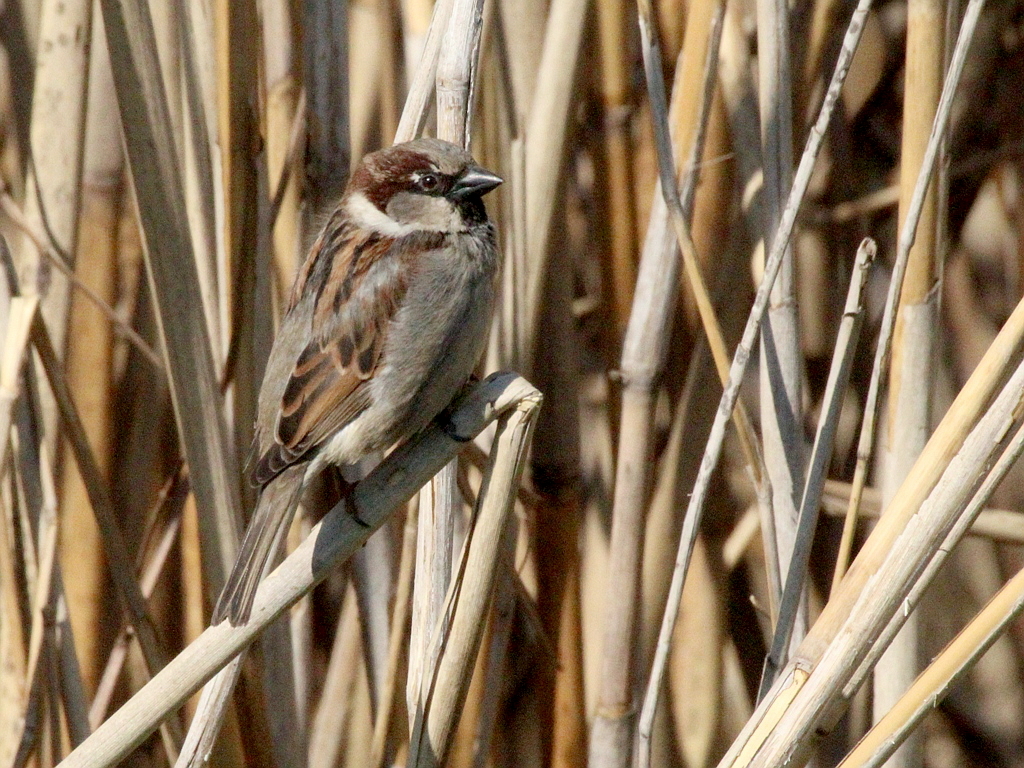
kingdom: Animalia
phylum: Chordata
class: Aves
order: Passeriformes
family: Passeridae
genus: Passer
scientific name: Passer domesticus
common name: House sparrow
